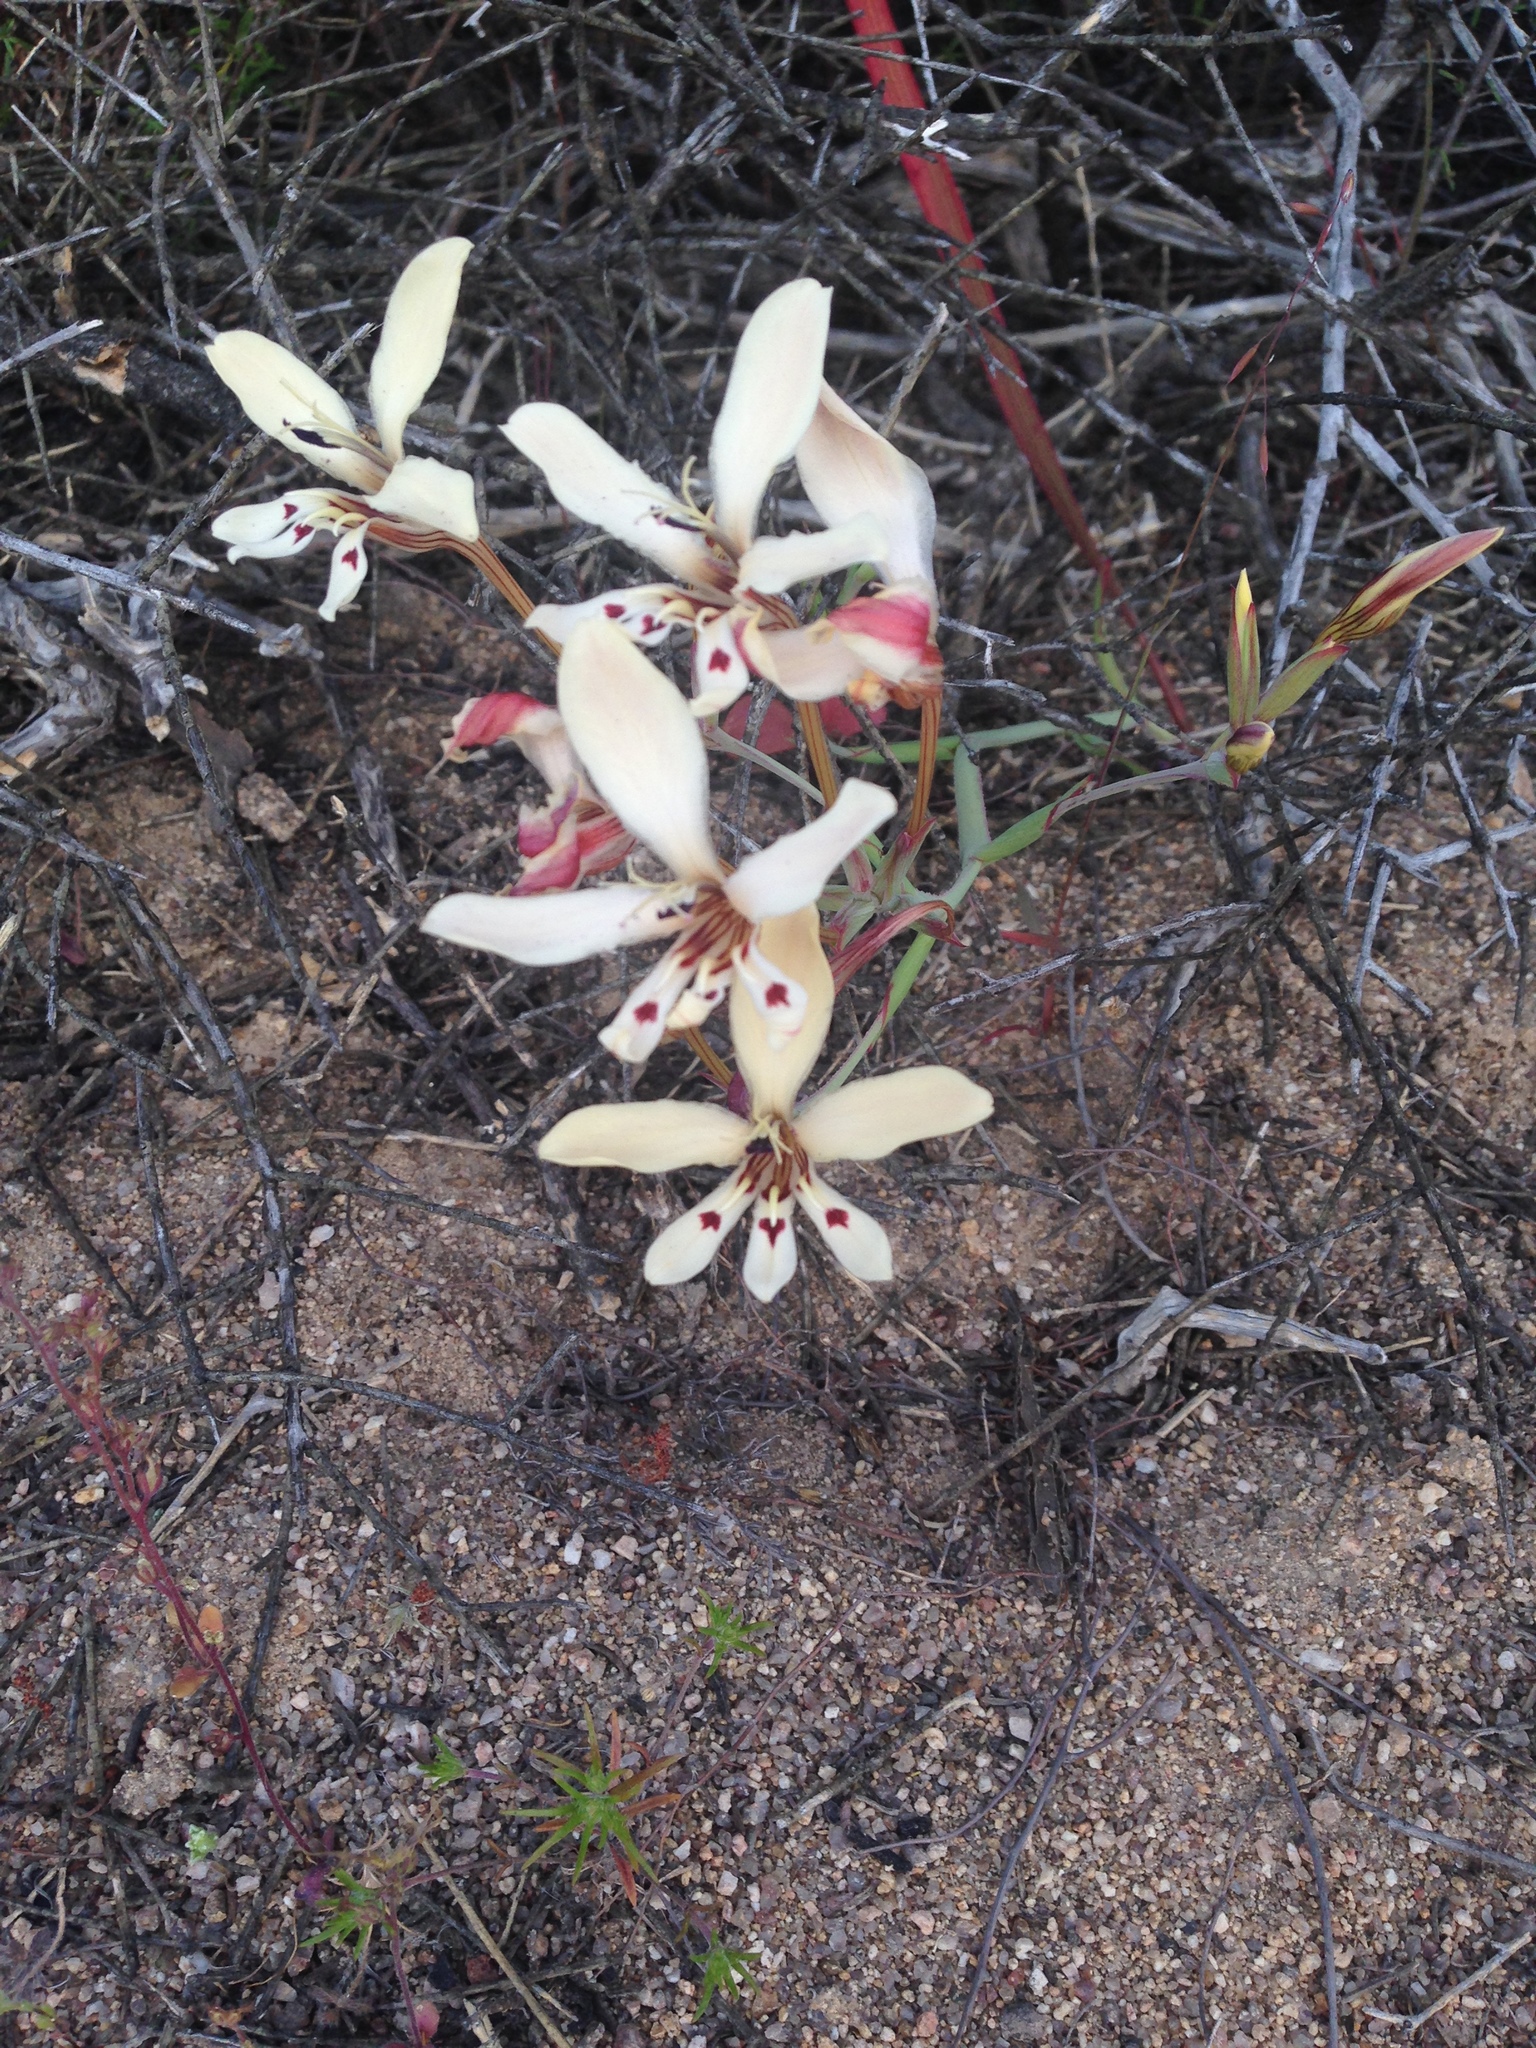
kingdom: Plantae
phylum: Tracheophyta
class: Liliopsida
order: Asparagales
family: Iridaceae
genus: Lapeirousia
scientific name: Lapeirousia fabricii
